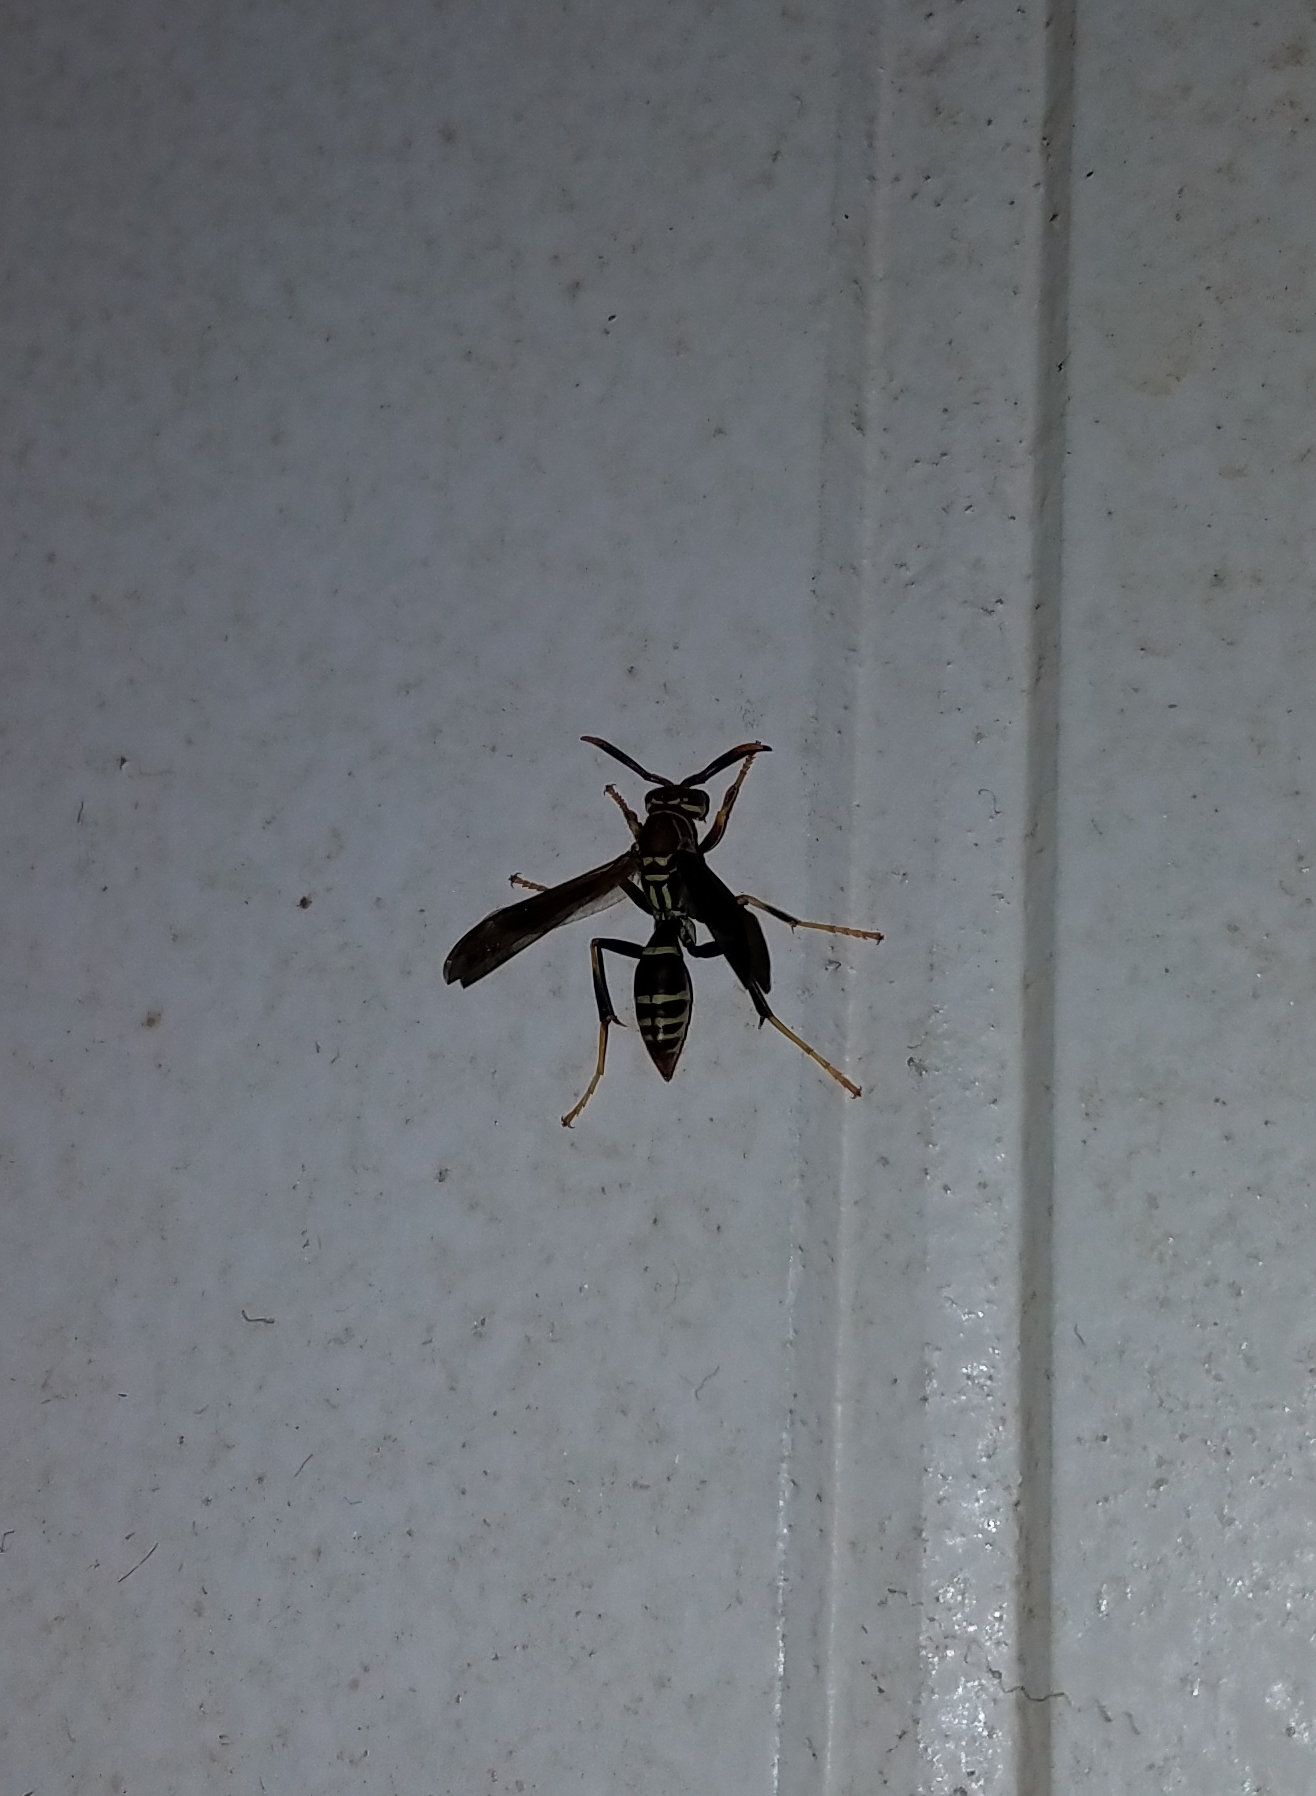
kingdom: Animalia
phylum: Arthropoda
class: Insecta
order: Hymenoptera
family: Eumenidae
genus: Polistes
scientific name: Polistes exclamans
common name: Paper wasp
